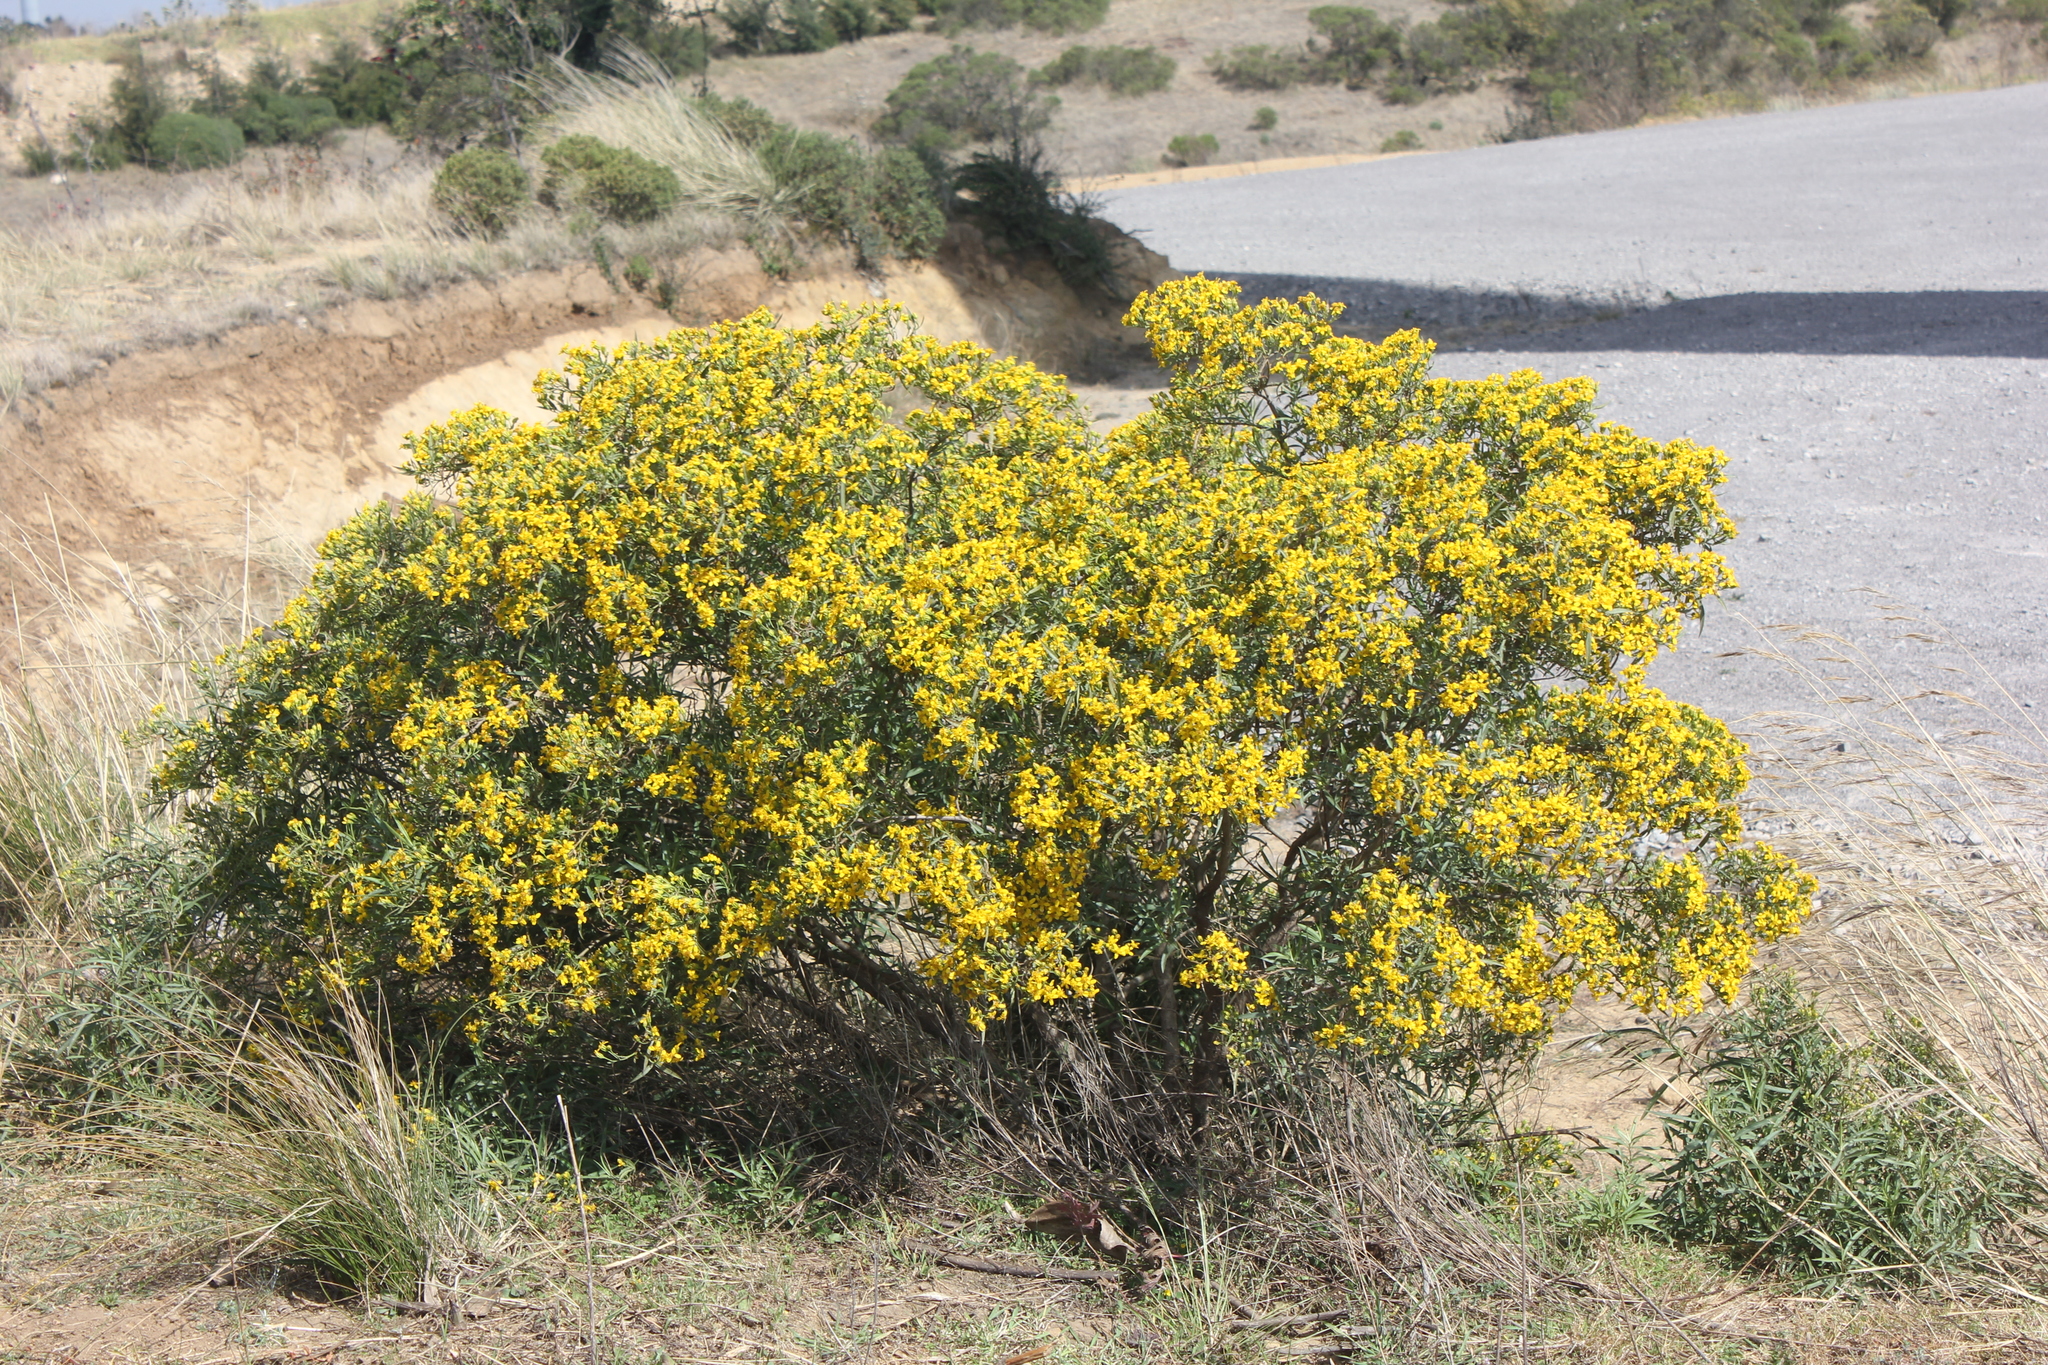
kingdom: Plantae
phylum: Tracheophyta
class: Magnoliopsida
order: Asterales
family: Asteraceae
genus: Barkleyanthus
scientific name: Barkleyanthus salicifolius
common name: Willow ragwort
